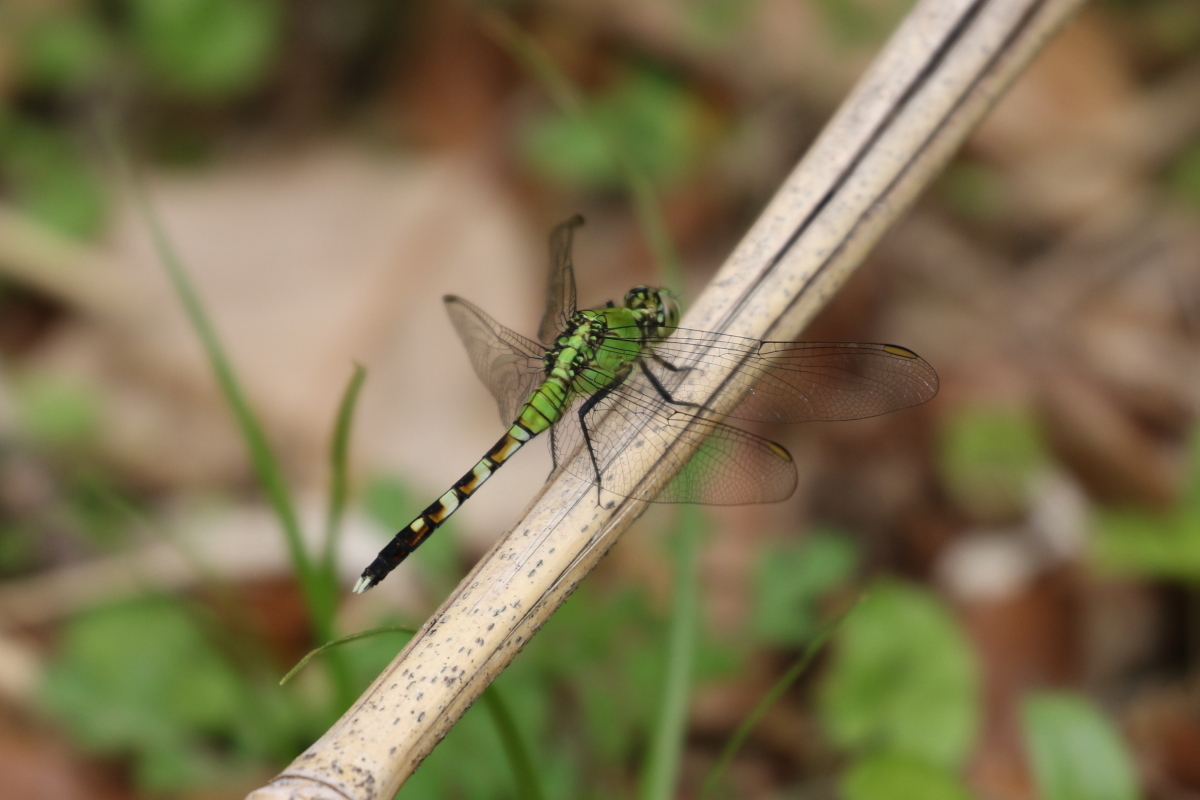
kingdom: Animalia
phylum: Arthropoda
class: Insecta
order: Odonata
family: Libellulidae
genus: Erythemis
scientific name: Erythemis simplicicollis
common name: Eastern pondhawk
